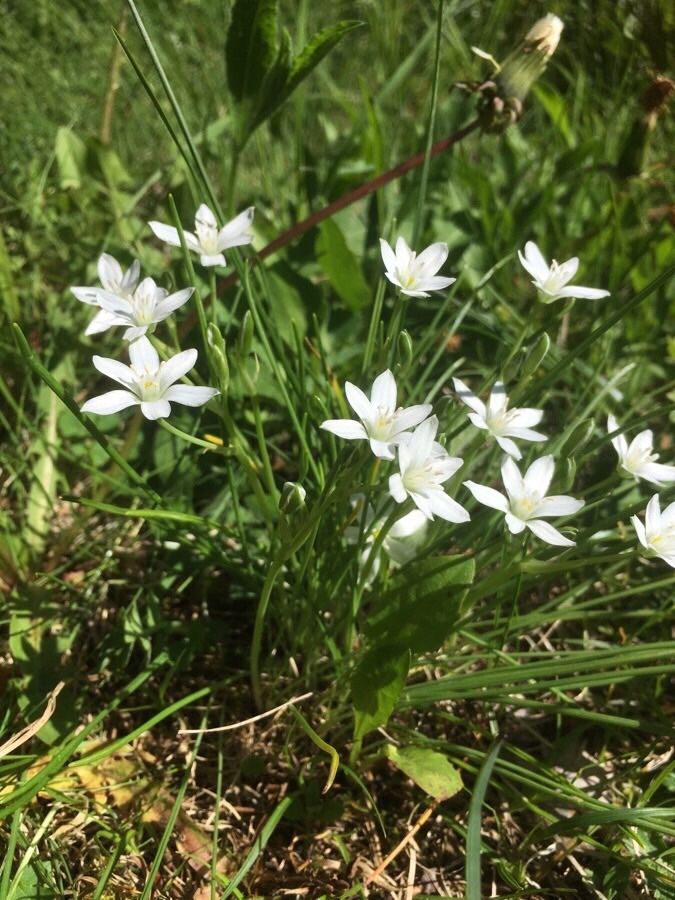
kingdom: Plantae
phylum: Tracheophyta
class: Liliopsida
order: Asparagales
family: Asparagaceae
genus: Ornithogalum
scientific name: Ornithogalum umbellatum
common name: Garden star-of-bethlehem
